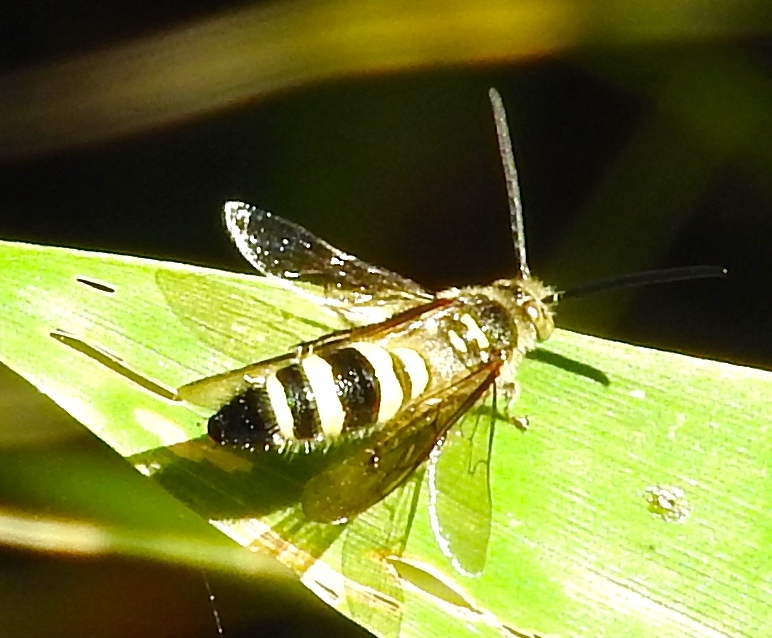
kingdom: Animalia
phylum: Arthropoda
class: Insecta
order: Hymenoptera
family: Scoliidae
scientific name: Scoliidae
